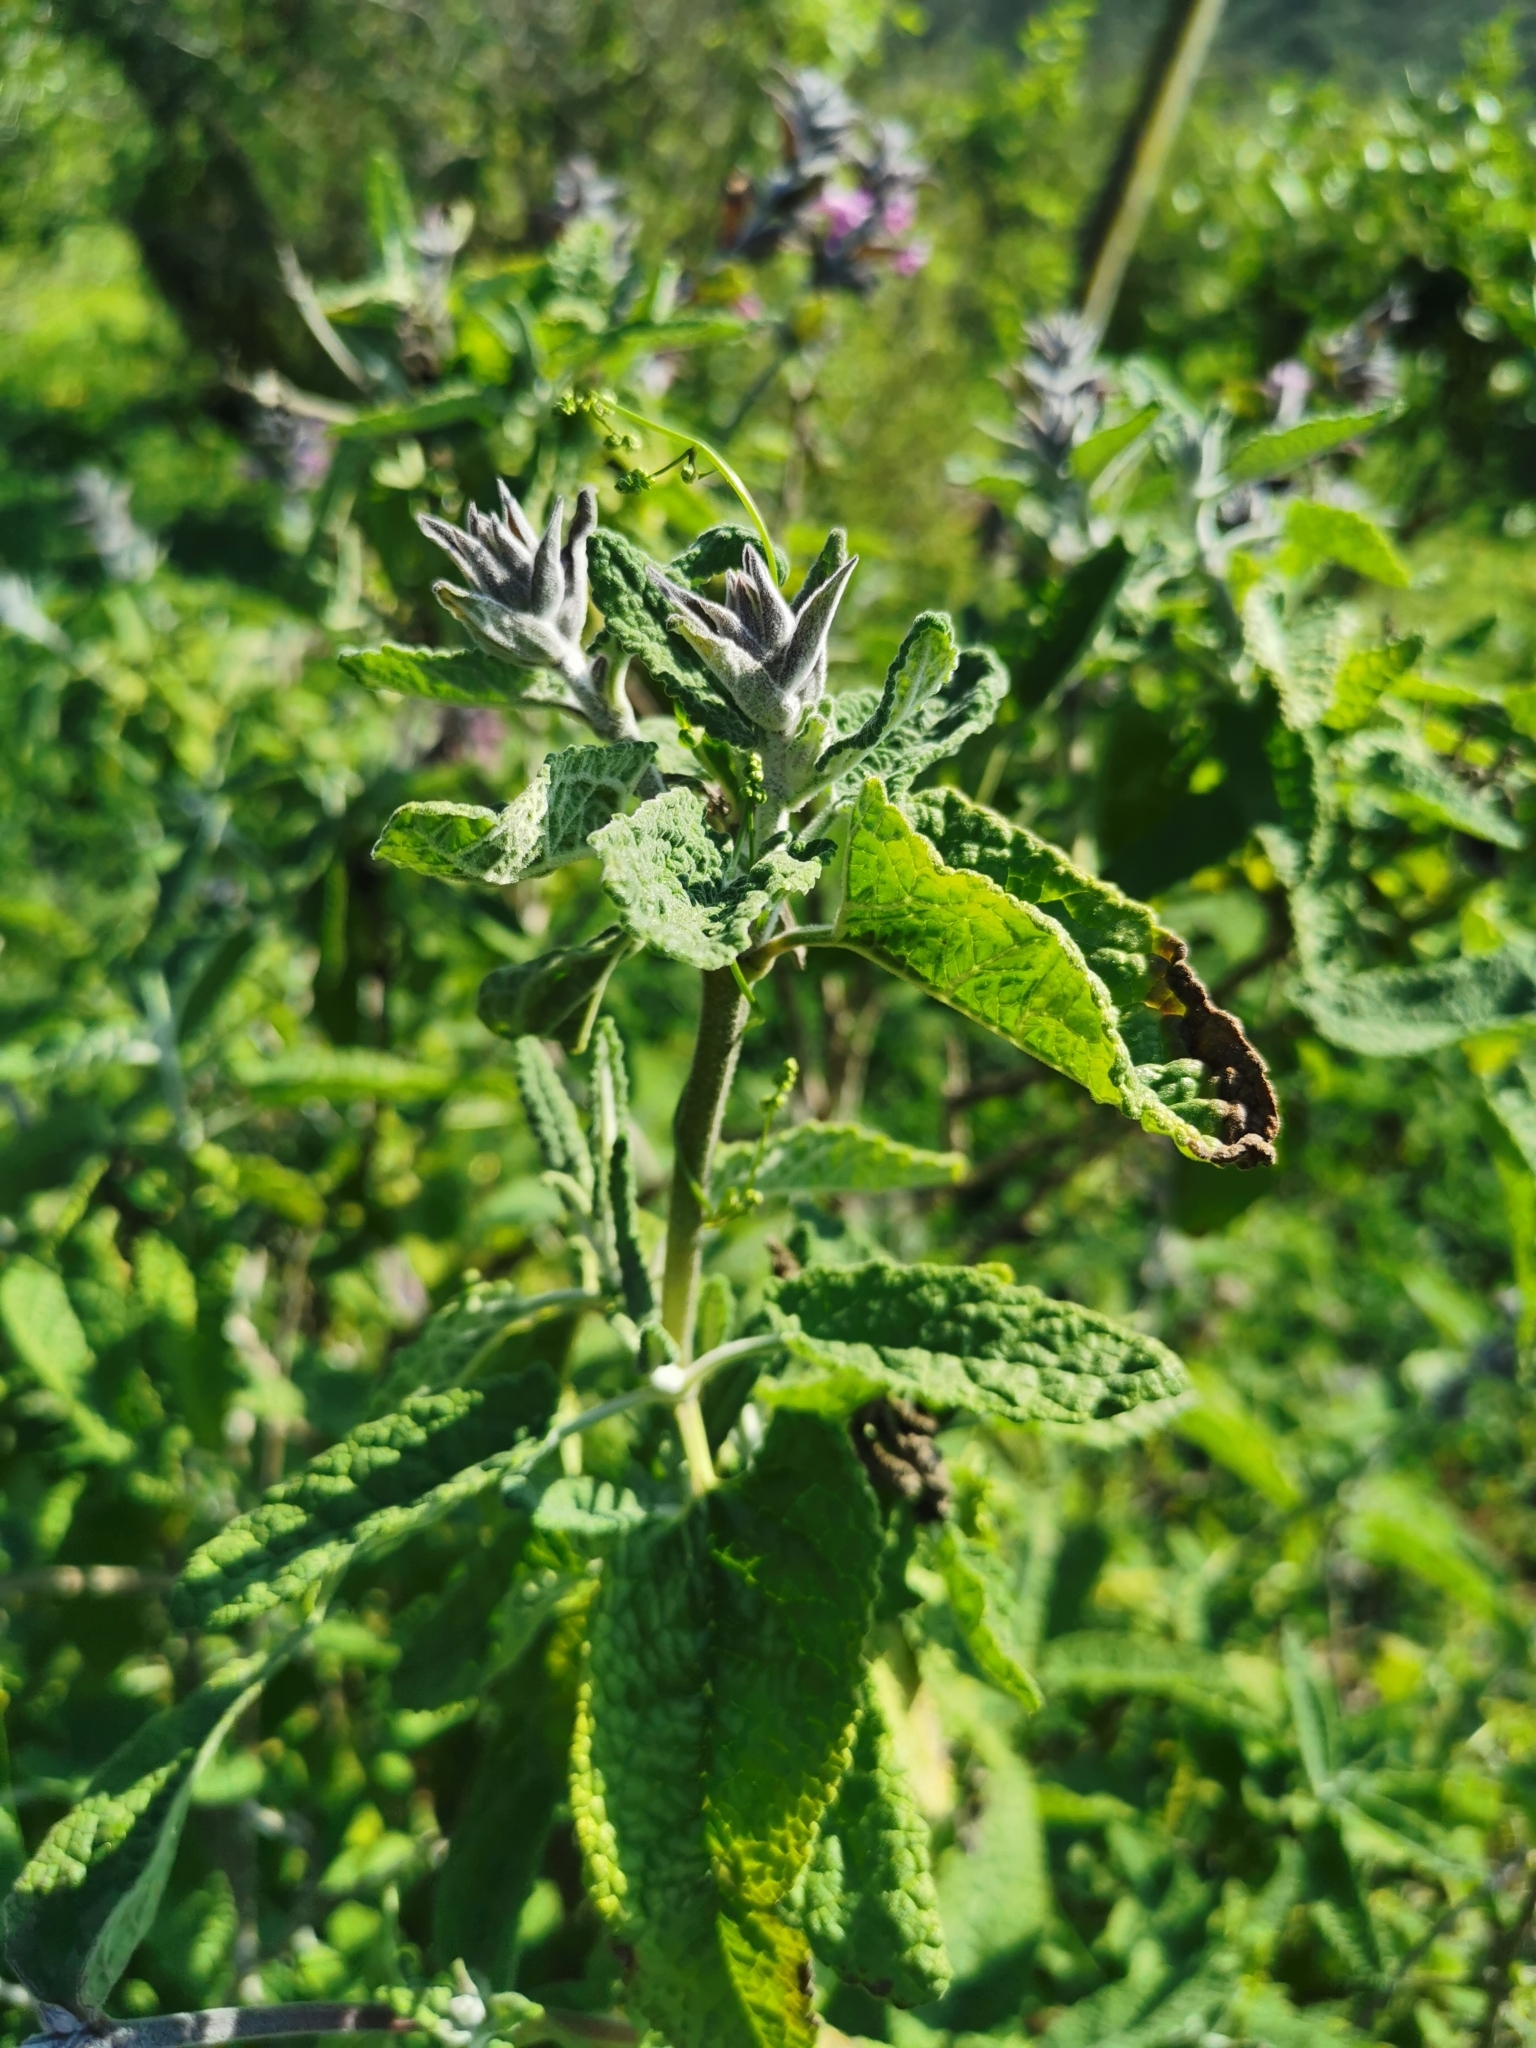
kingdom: Plantae
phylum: Tracheophyta
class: Magnoliopsida
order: Lamiales
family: Lamiaceae
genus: Lepechinia
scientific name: Lepechinia salviae
